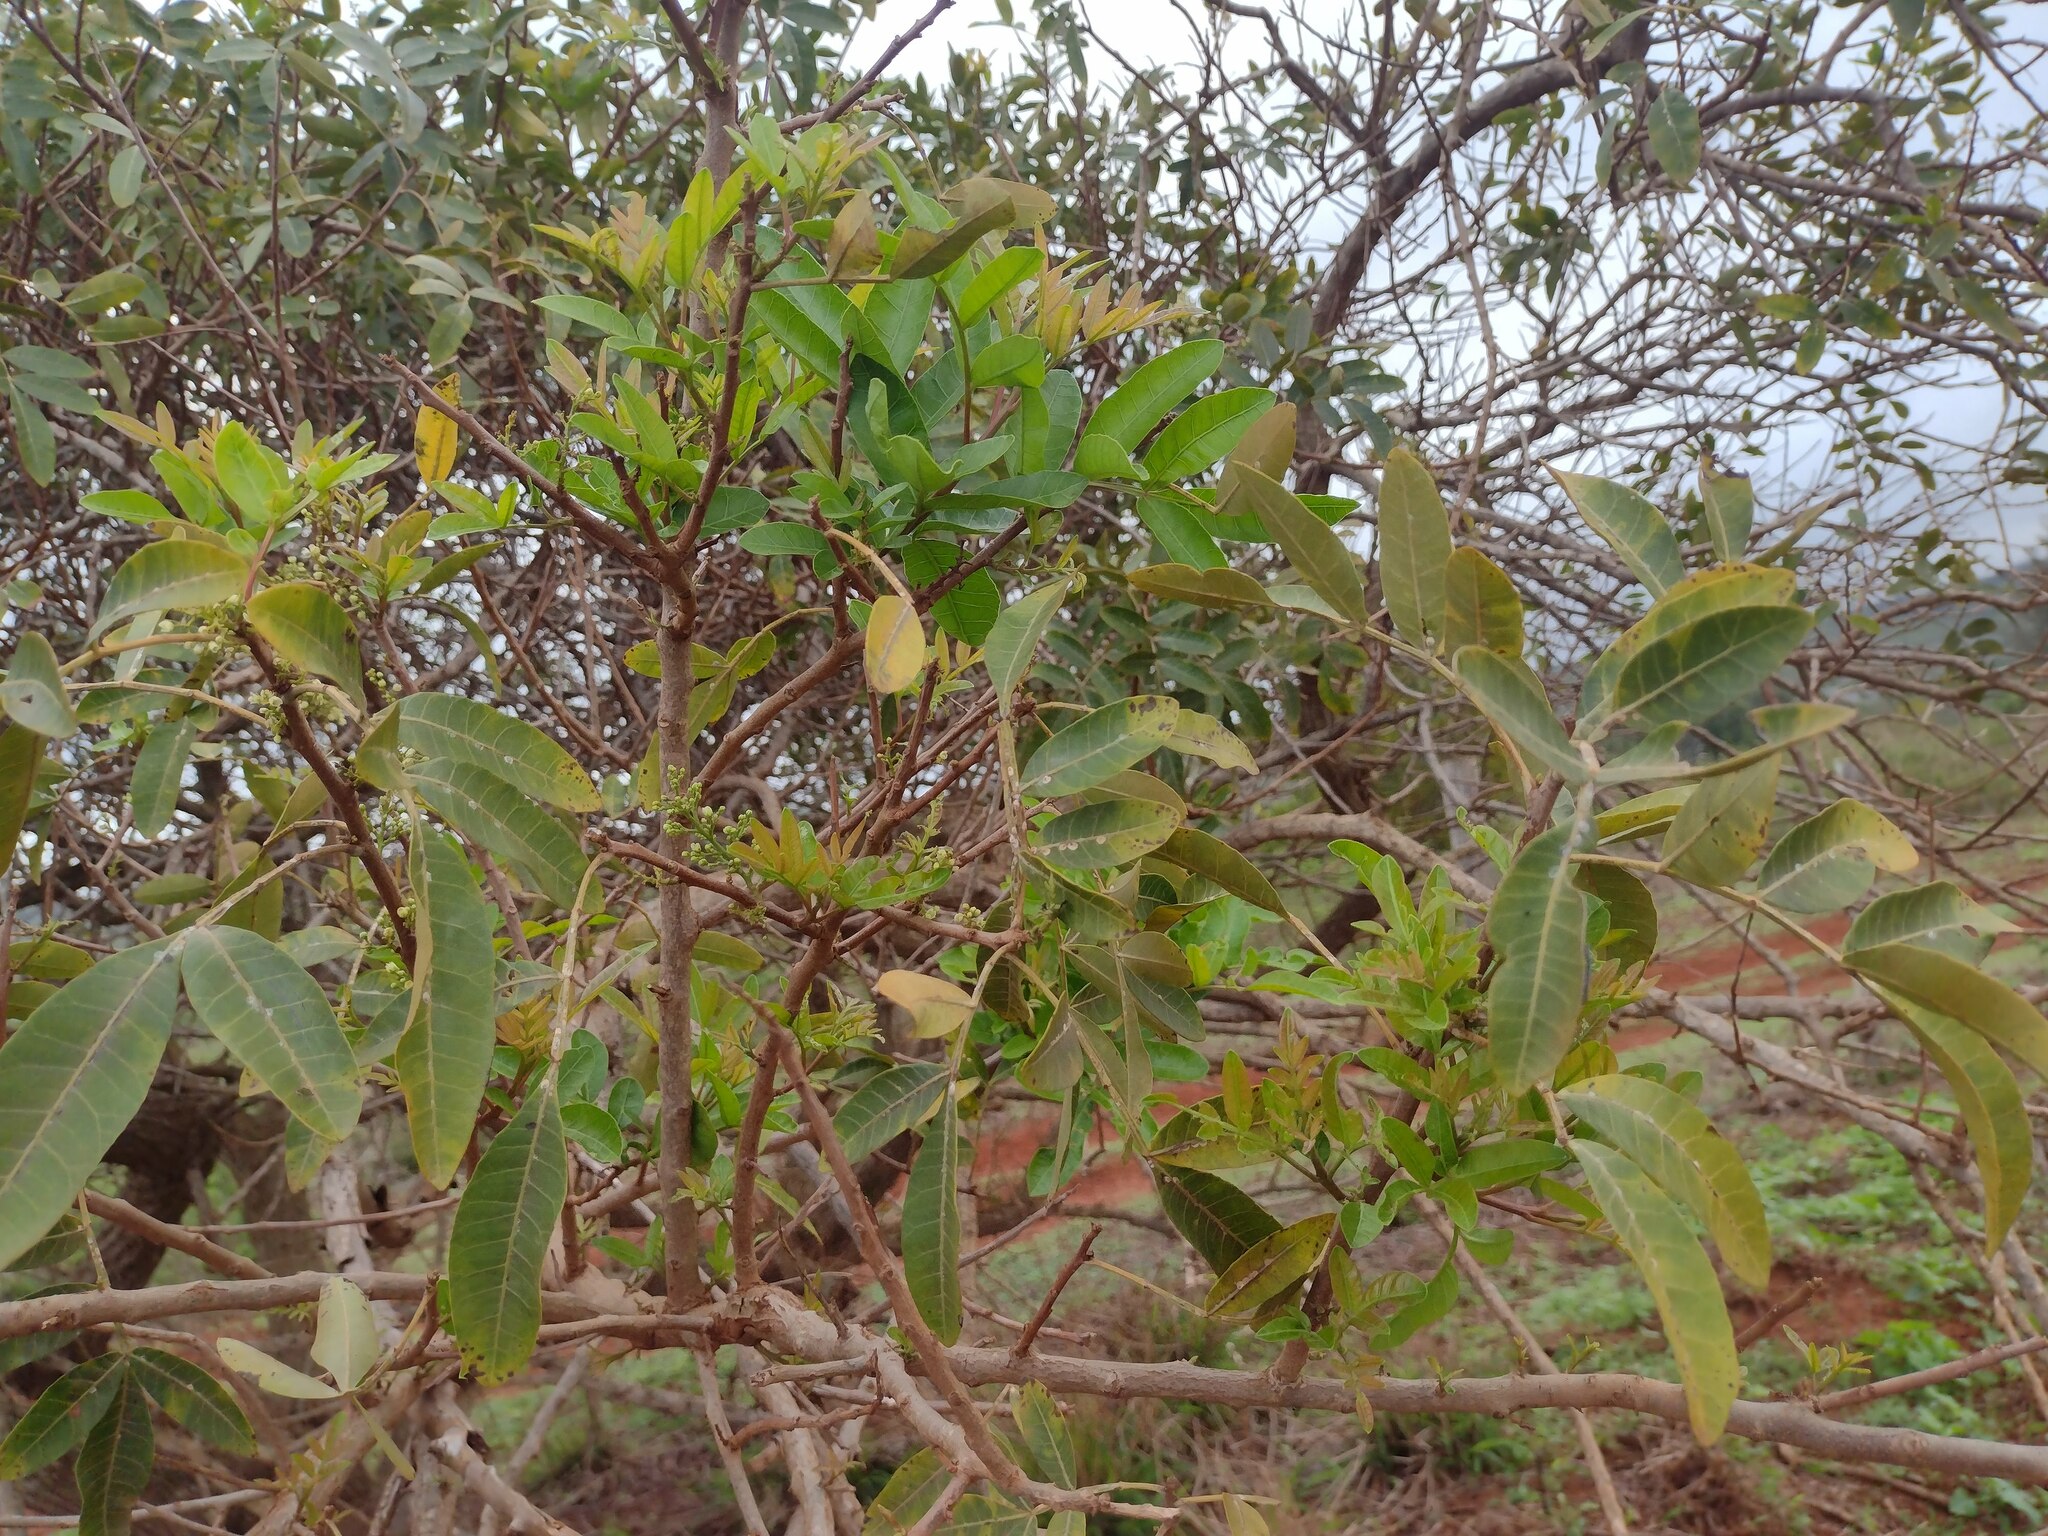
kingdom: Plantae
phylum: Tracheophyta
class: Magnoliopsida
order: Sapindales
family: Anacardiaceae
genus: Schinus
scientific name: Schinus terebinthifolia
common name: Brazilian peppertree
